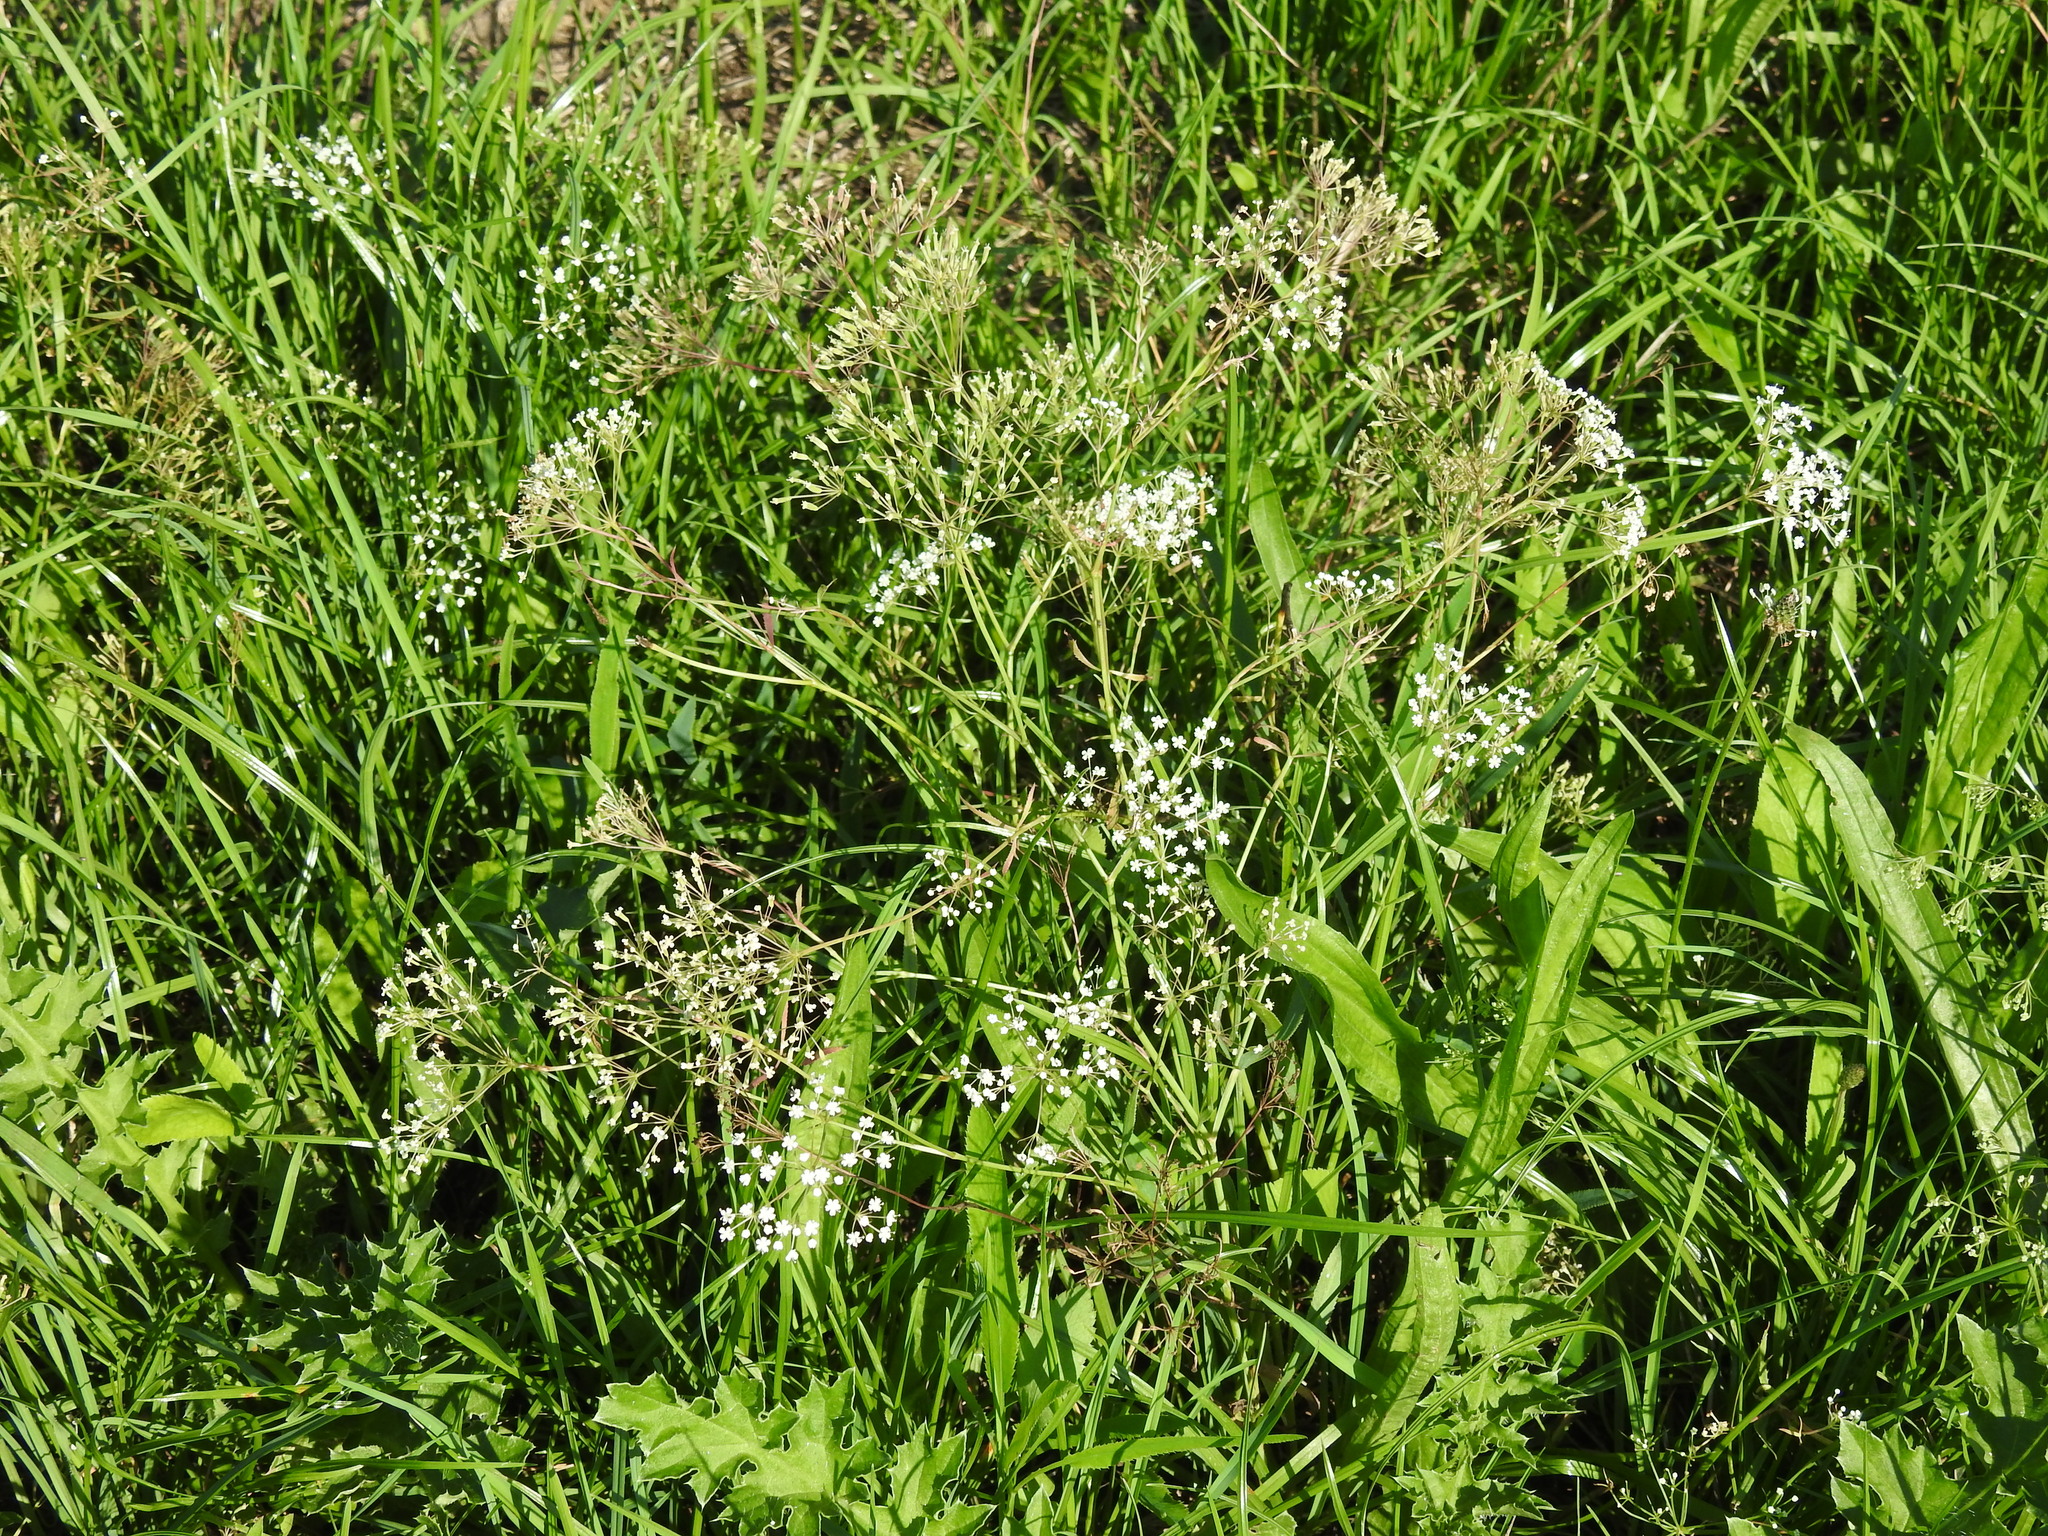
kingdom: Plantae
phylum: Tracheophyta
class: Magnoliopsida
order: Apiales
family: Apiaceae
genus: Falcaria
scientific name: Falcaria vulgaris
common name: Longleaf
